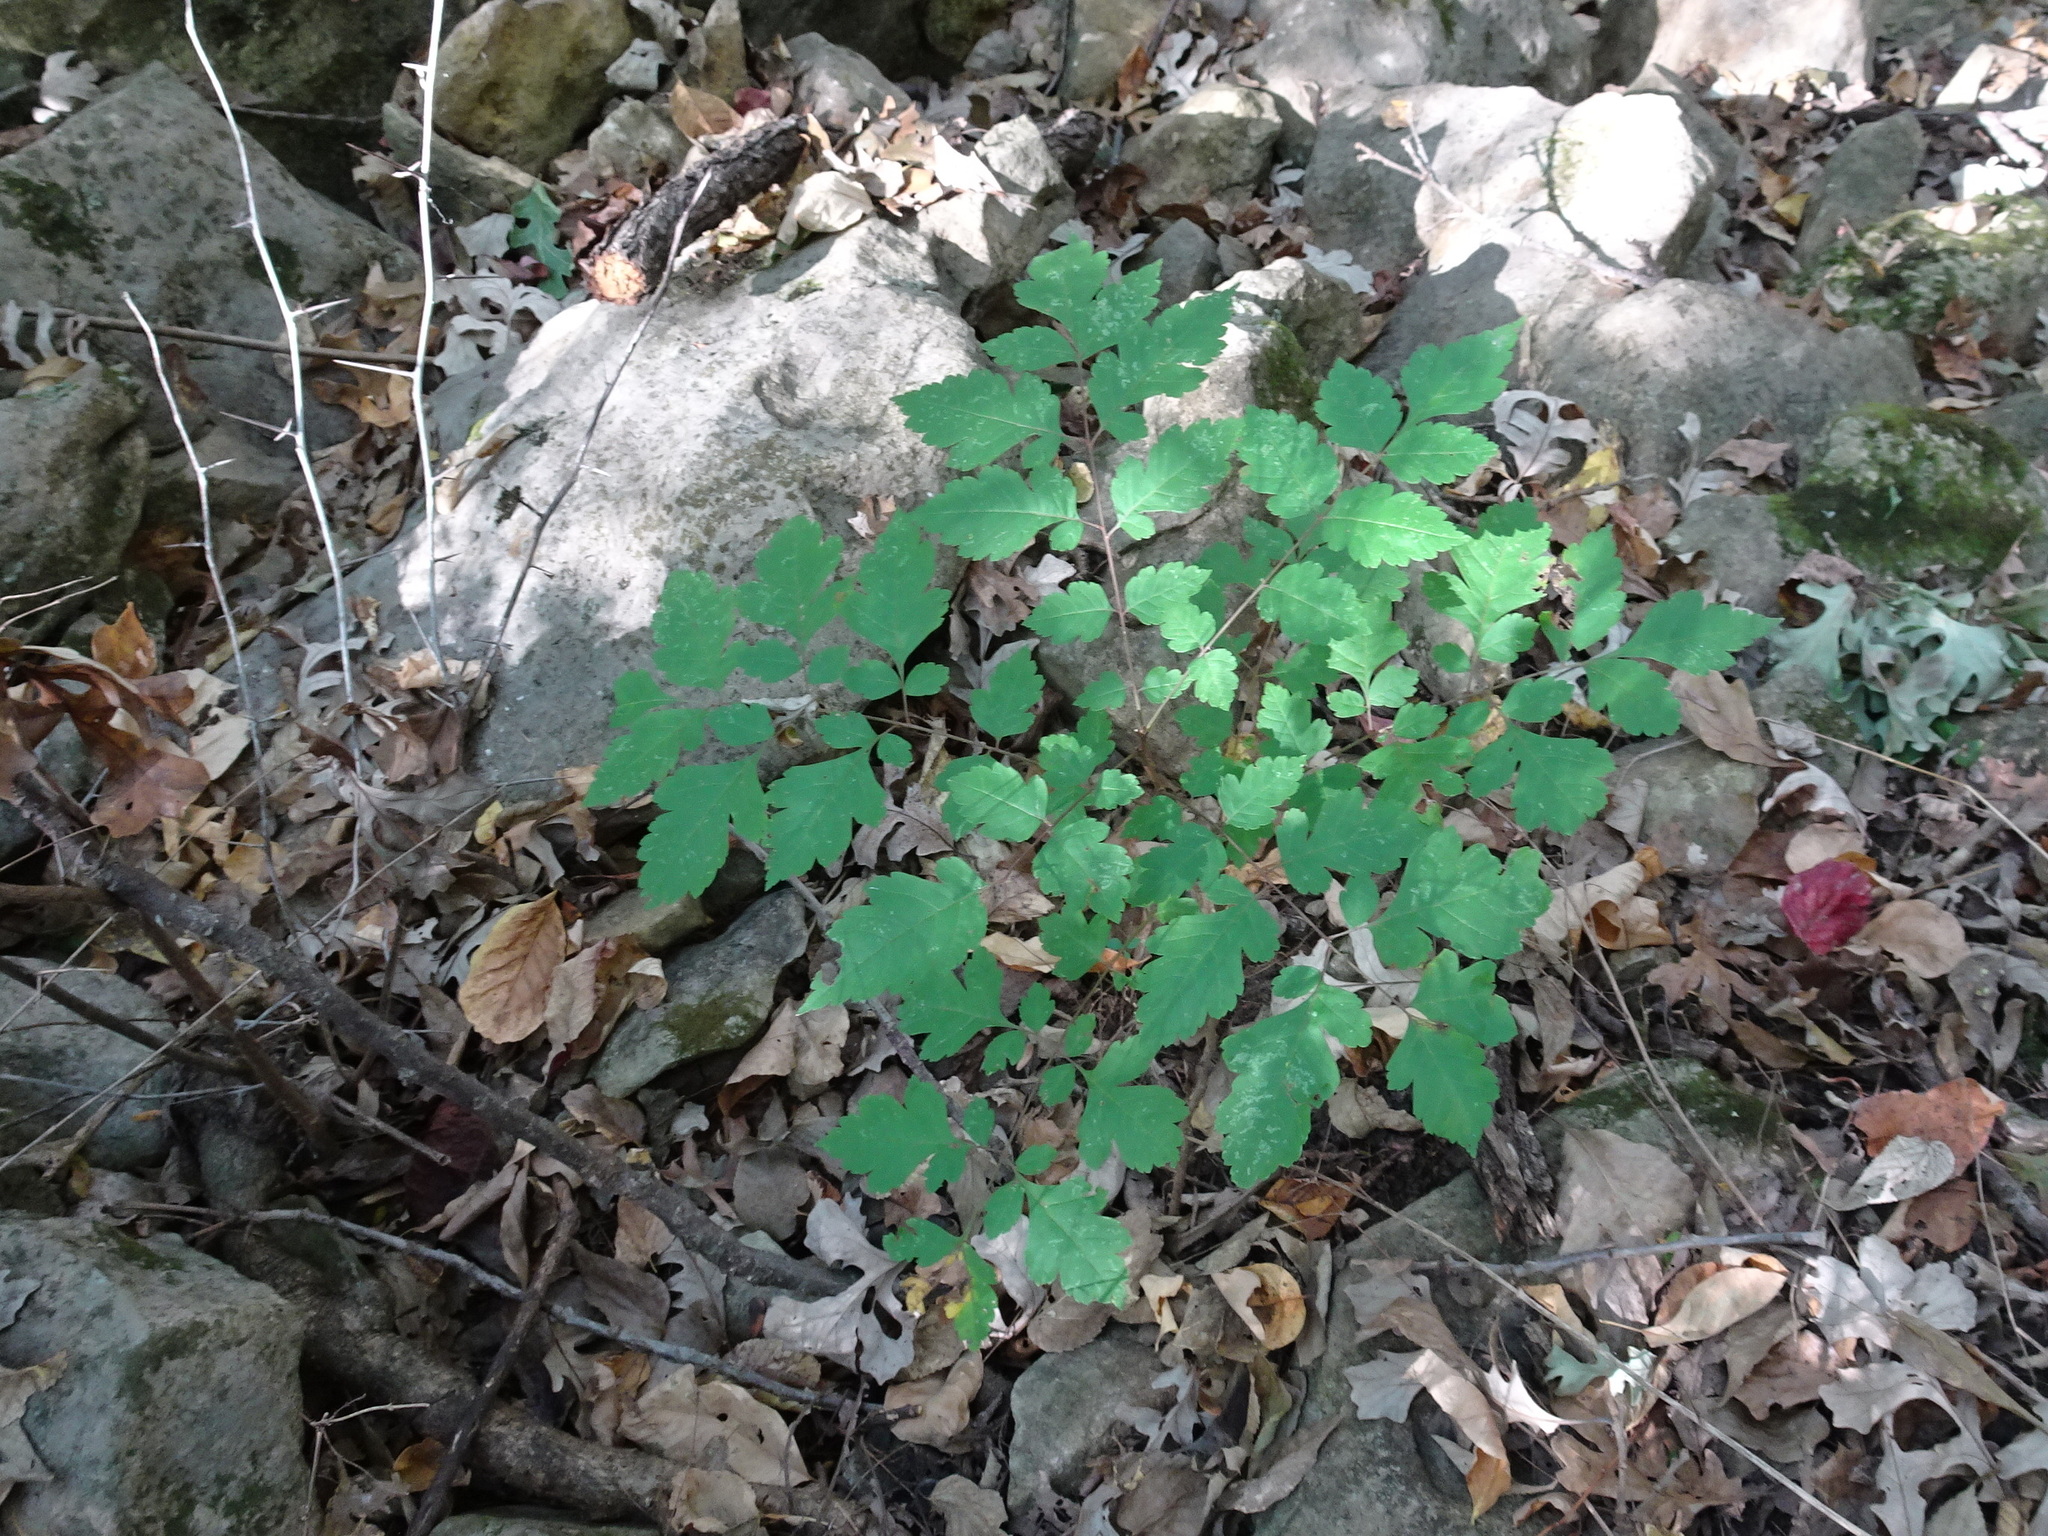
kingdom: Plantae
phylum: Tracheophyta
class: Magnoliopsida
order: Sapindales
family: Sapindaceae
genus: Koelreuteria
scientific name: Koelreuteria paniculata
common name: Pride-of-india
